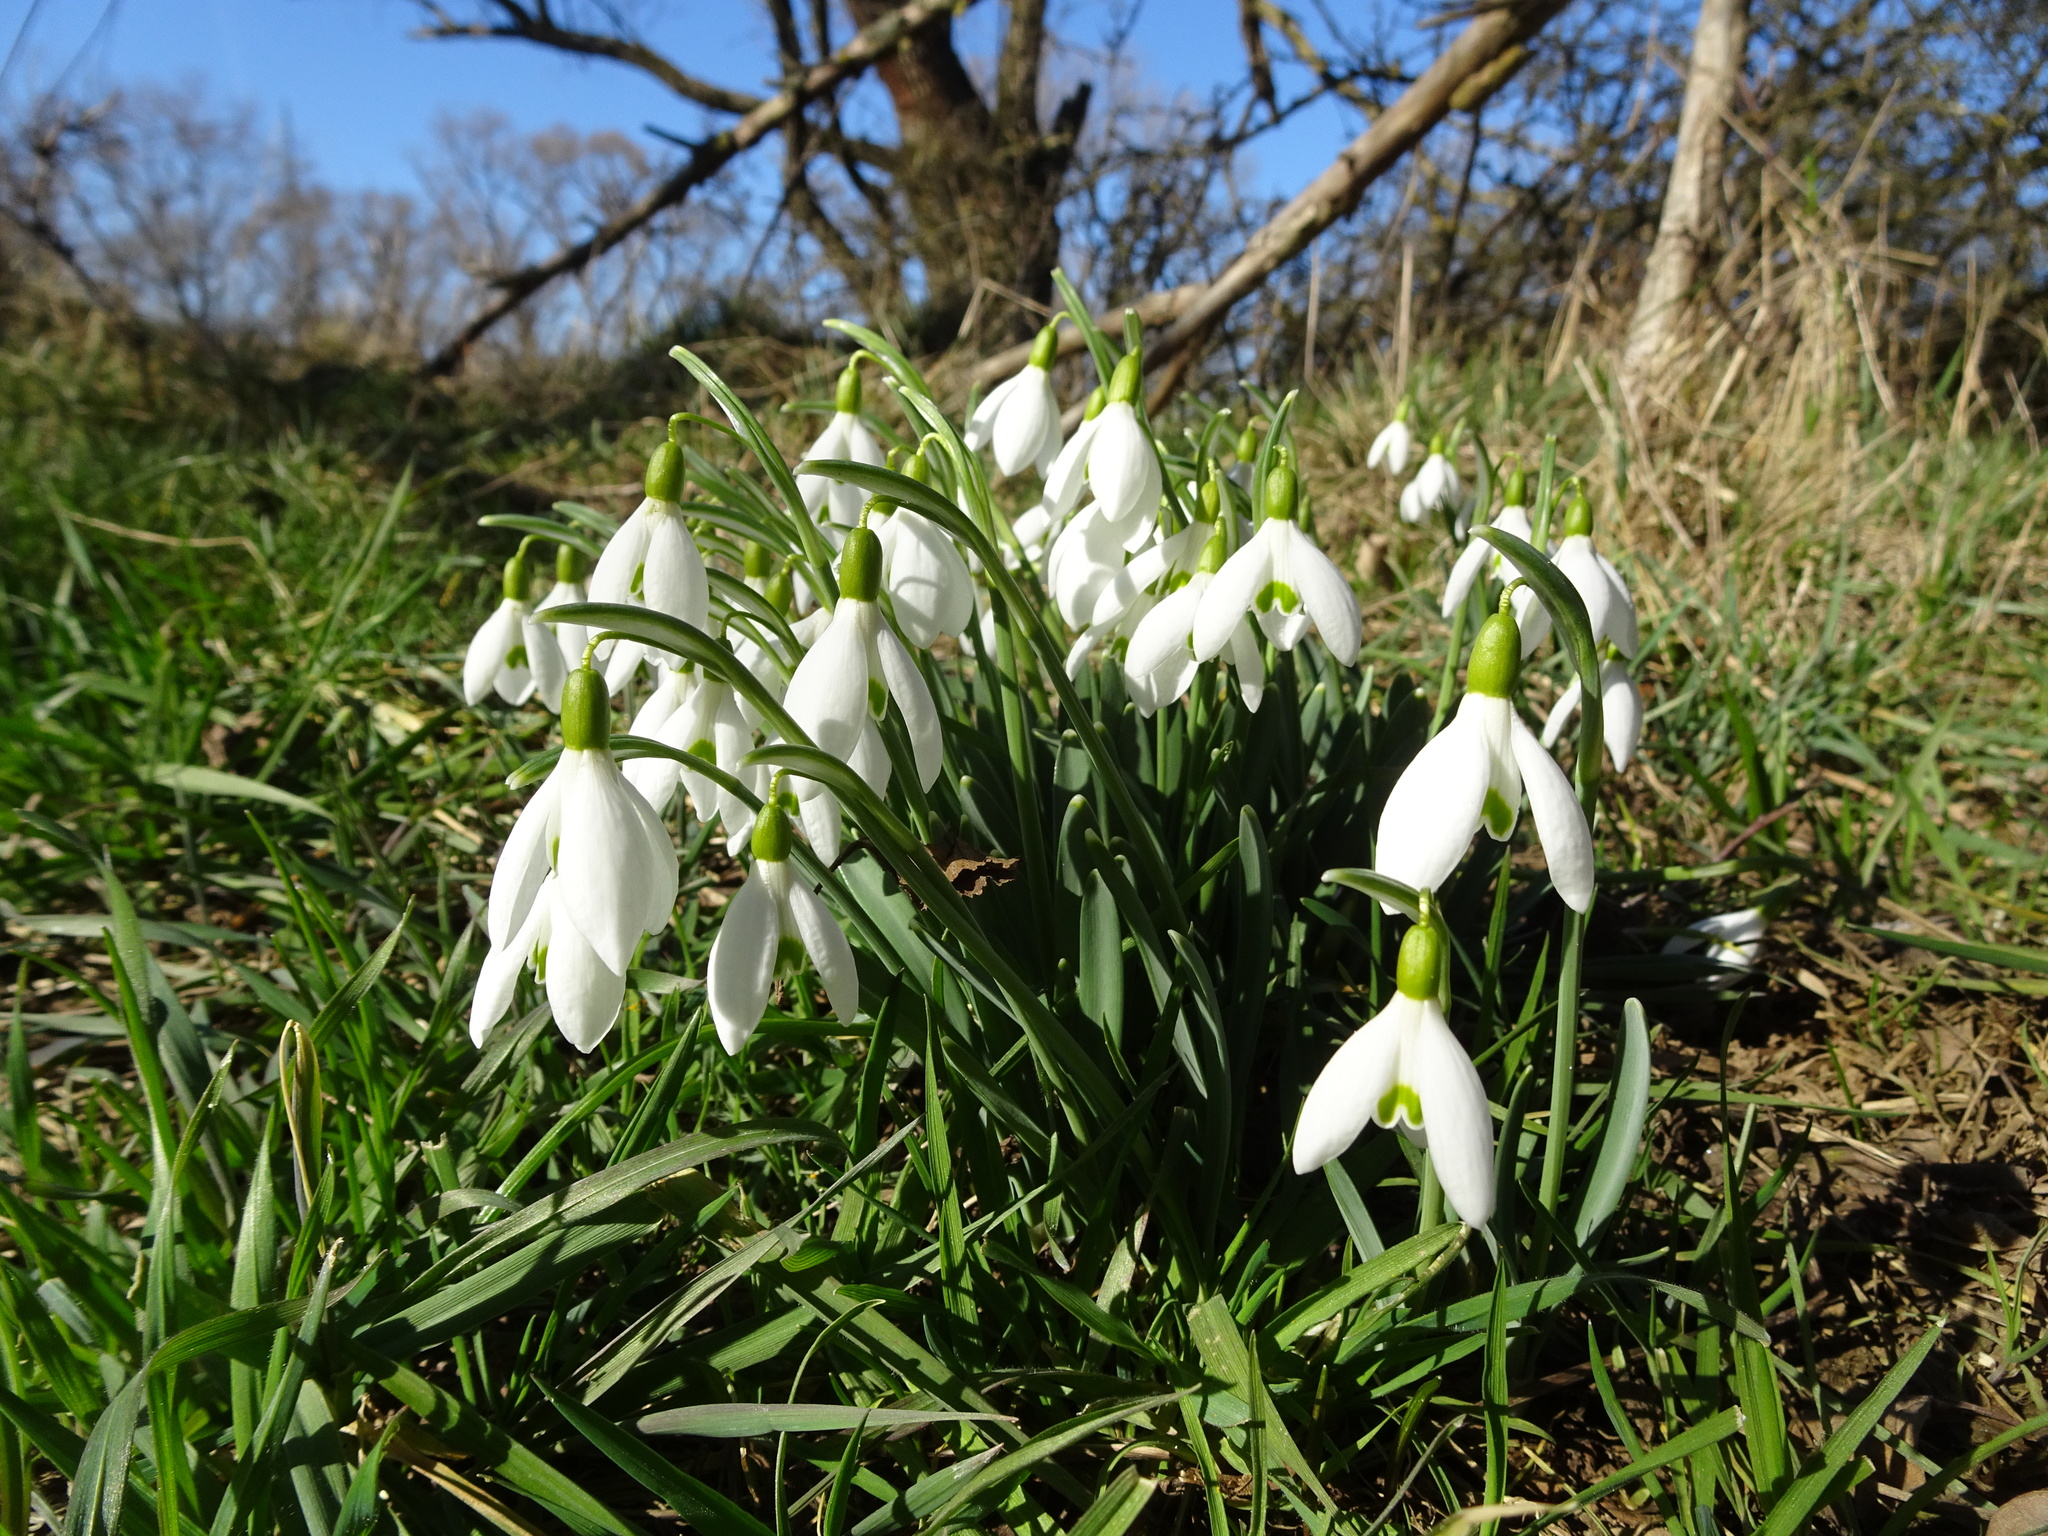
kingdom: Plantae
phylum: Tracheophyta
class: Liliopsida
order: Asparagales
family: Amaryllidaceae
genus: Galanthus
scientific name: Galanthus nivalis
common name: Snowdrop
